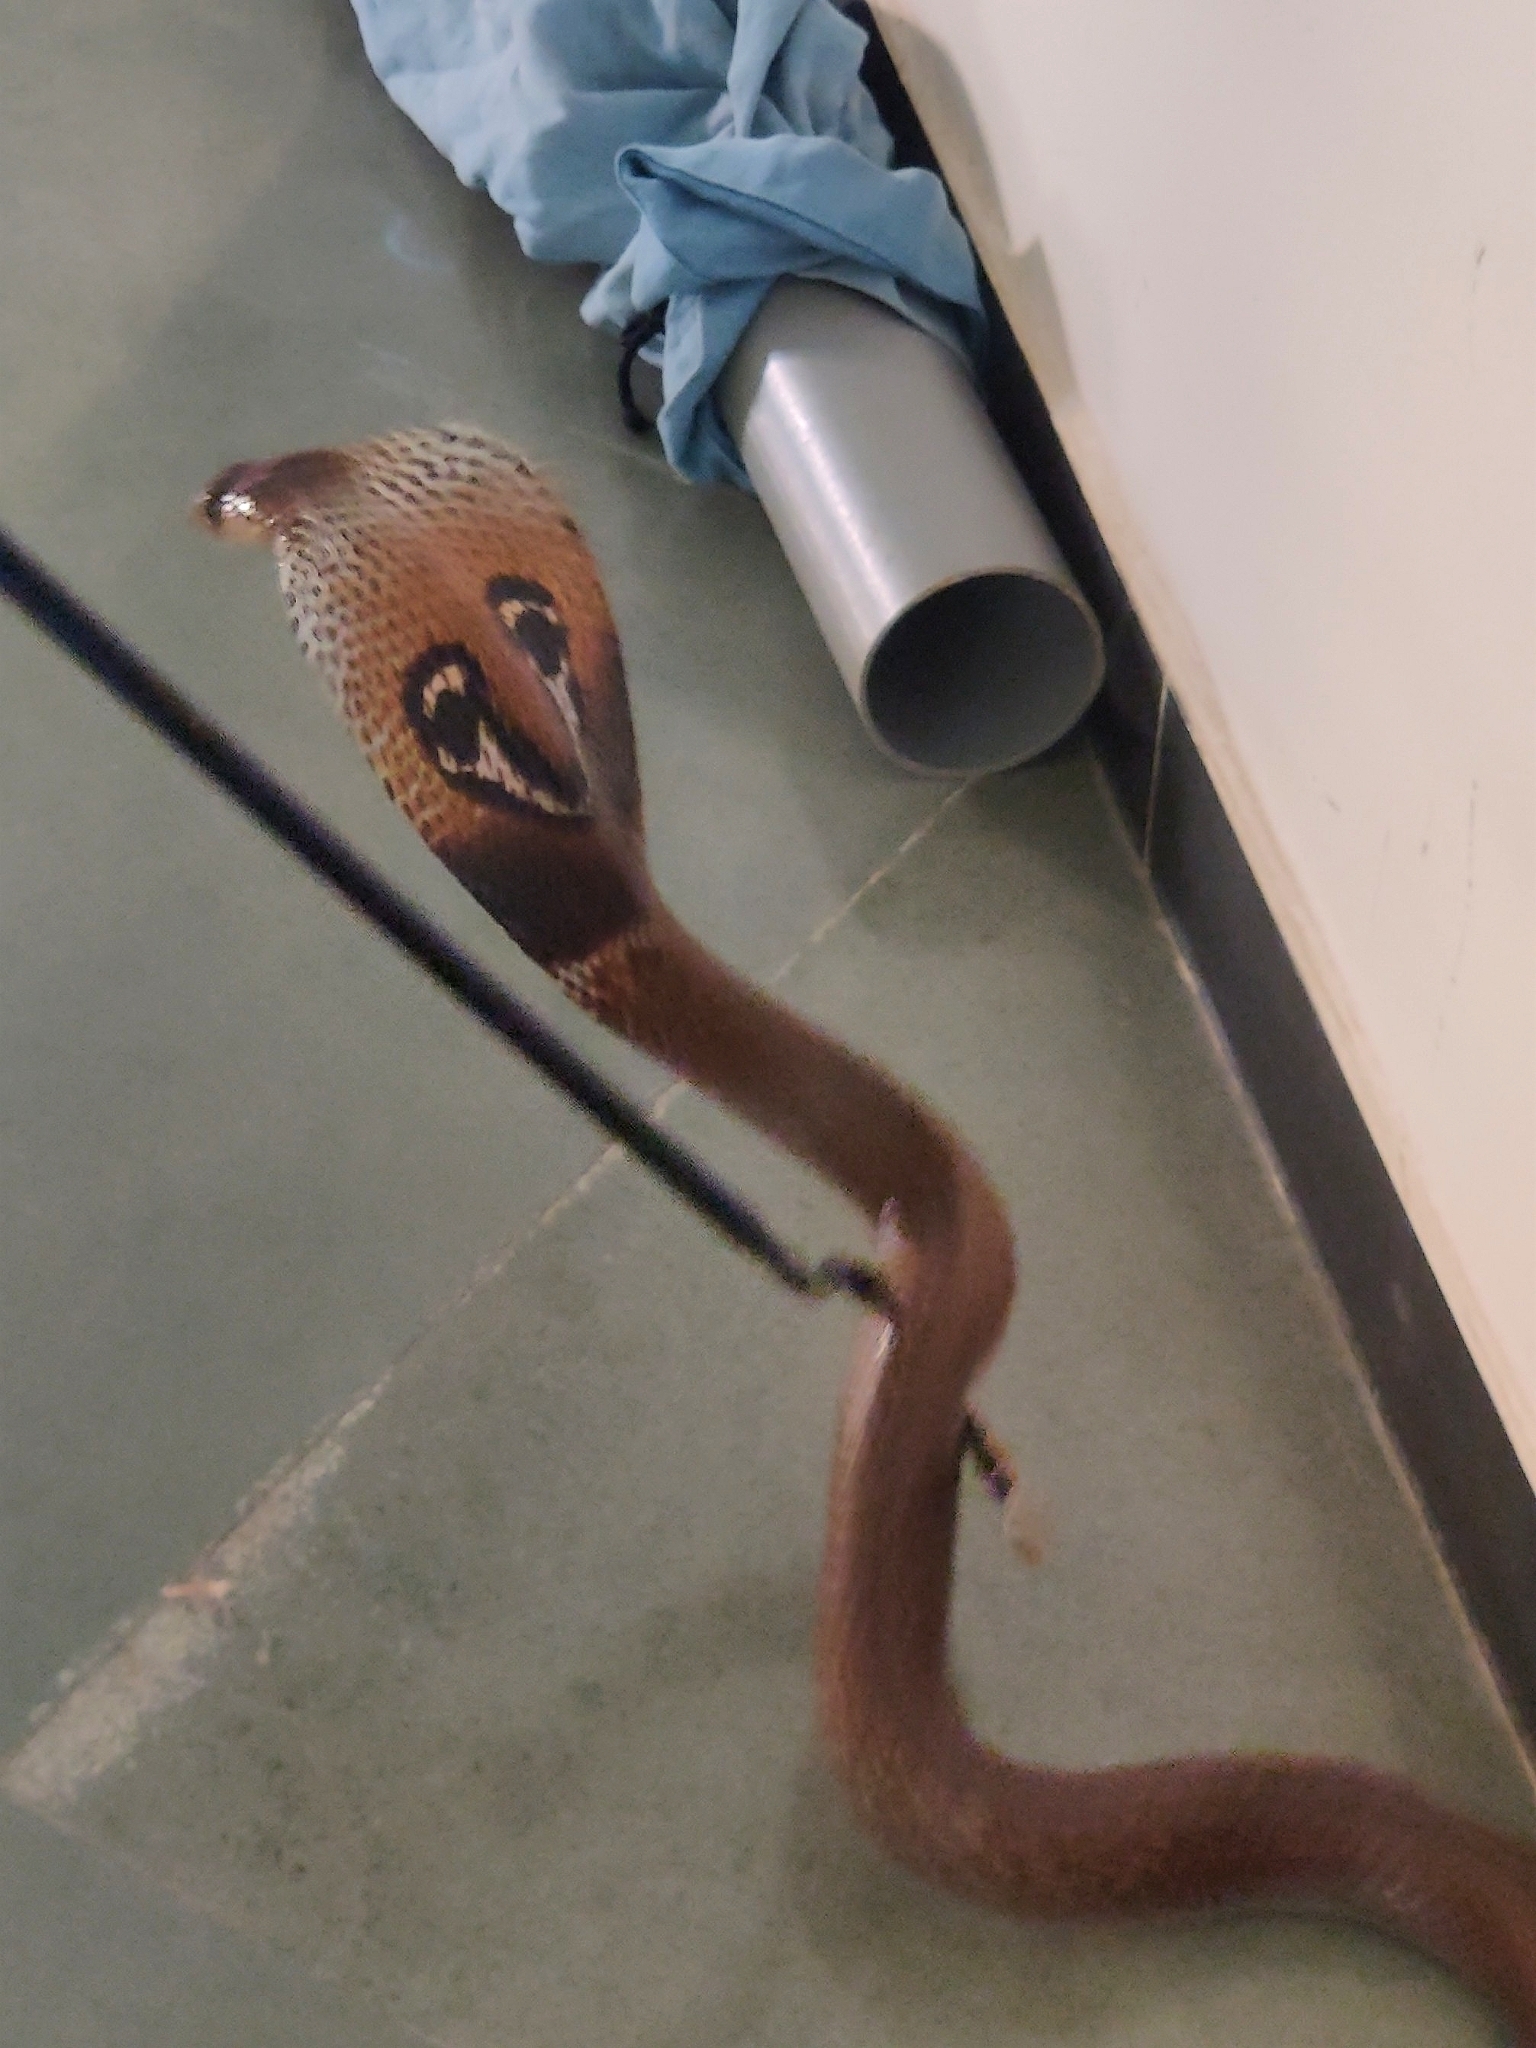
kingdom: Animalia
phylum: Chordata
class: Squamata
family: Elapidae
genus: Naja
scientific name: Naja naja
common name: Indian cobra
